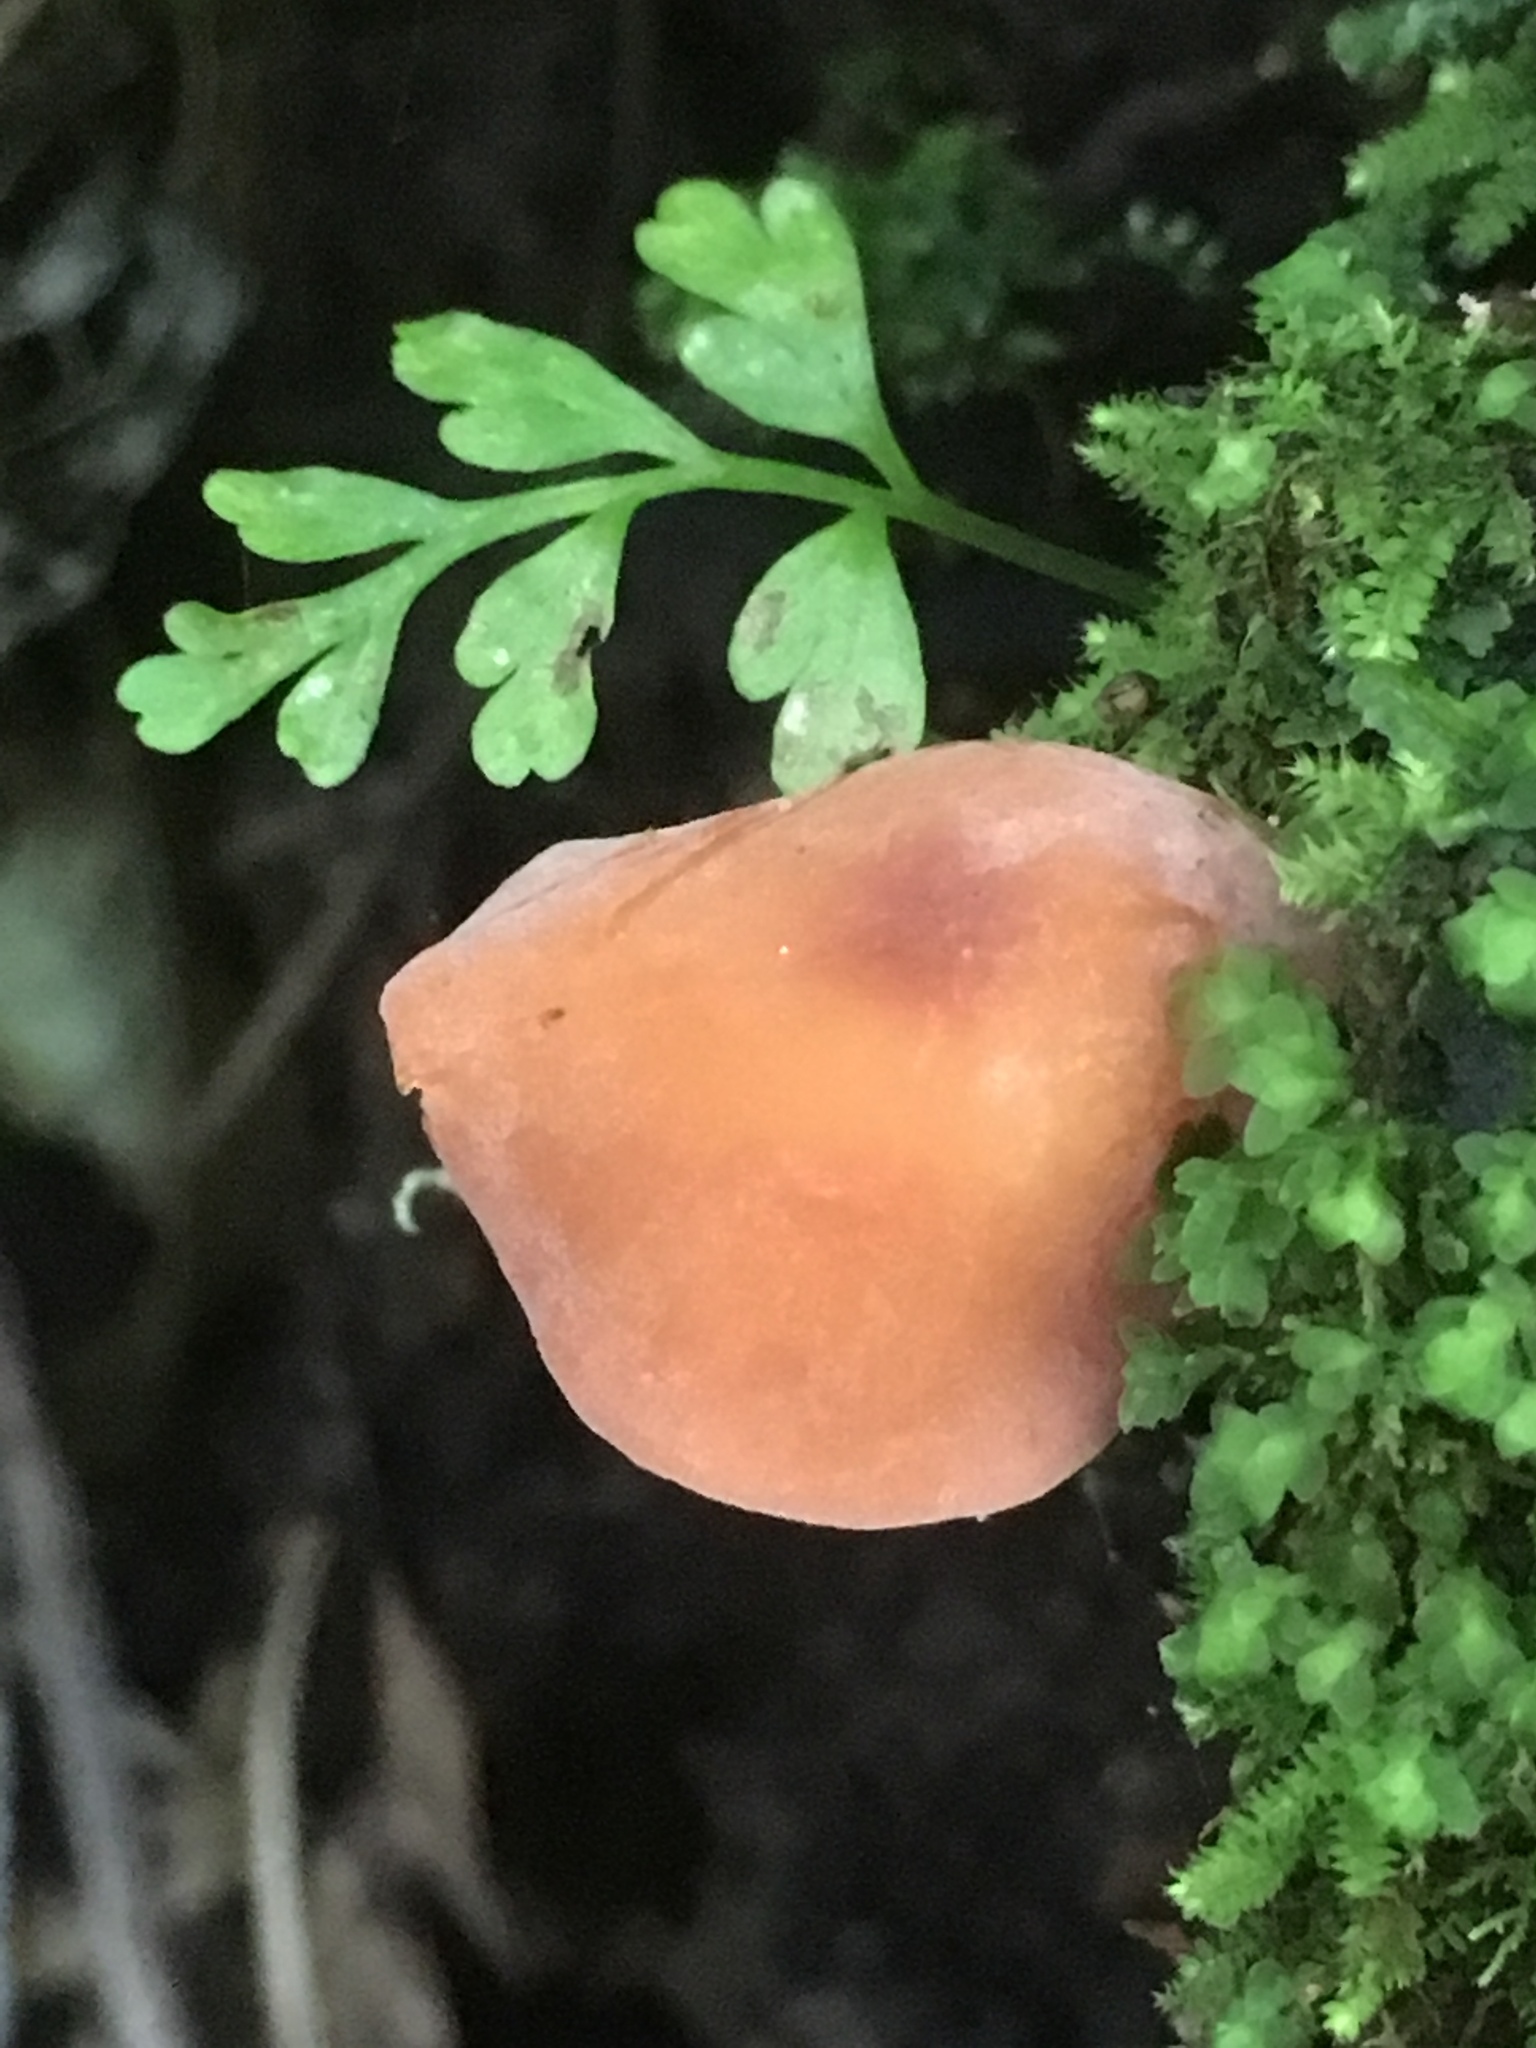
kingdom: Fungi
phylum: Basidiomycota
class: Agaricomycetes
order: Agaricales
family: Tricholomataceae
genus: Omphalina
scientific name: Omphalina wellingtonensis
